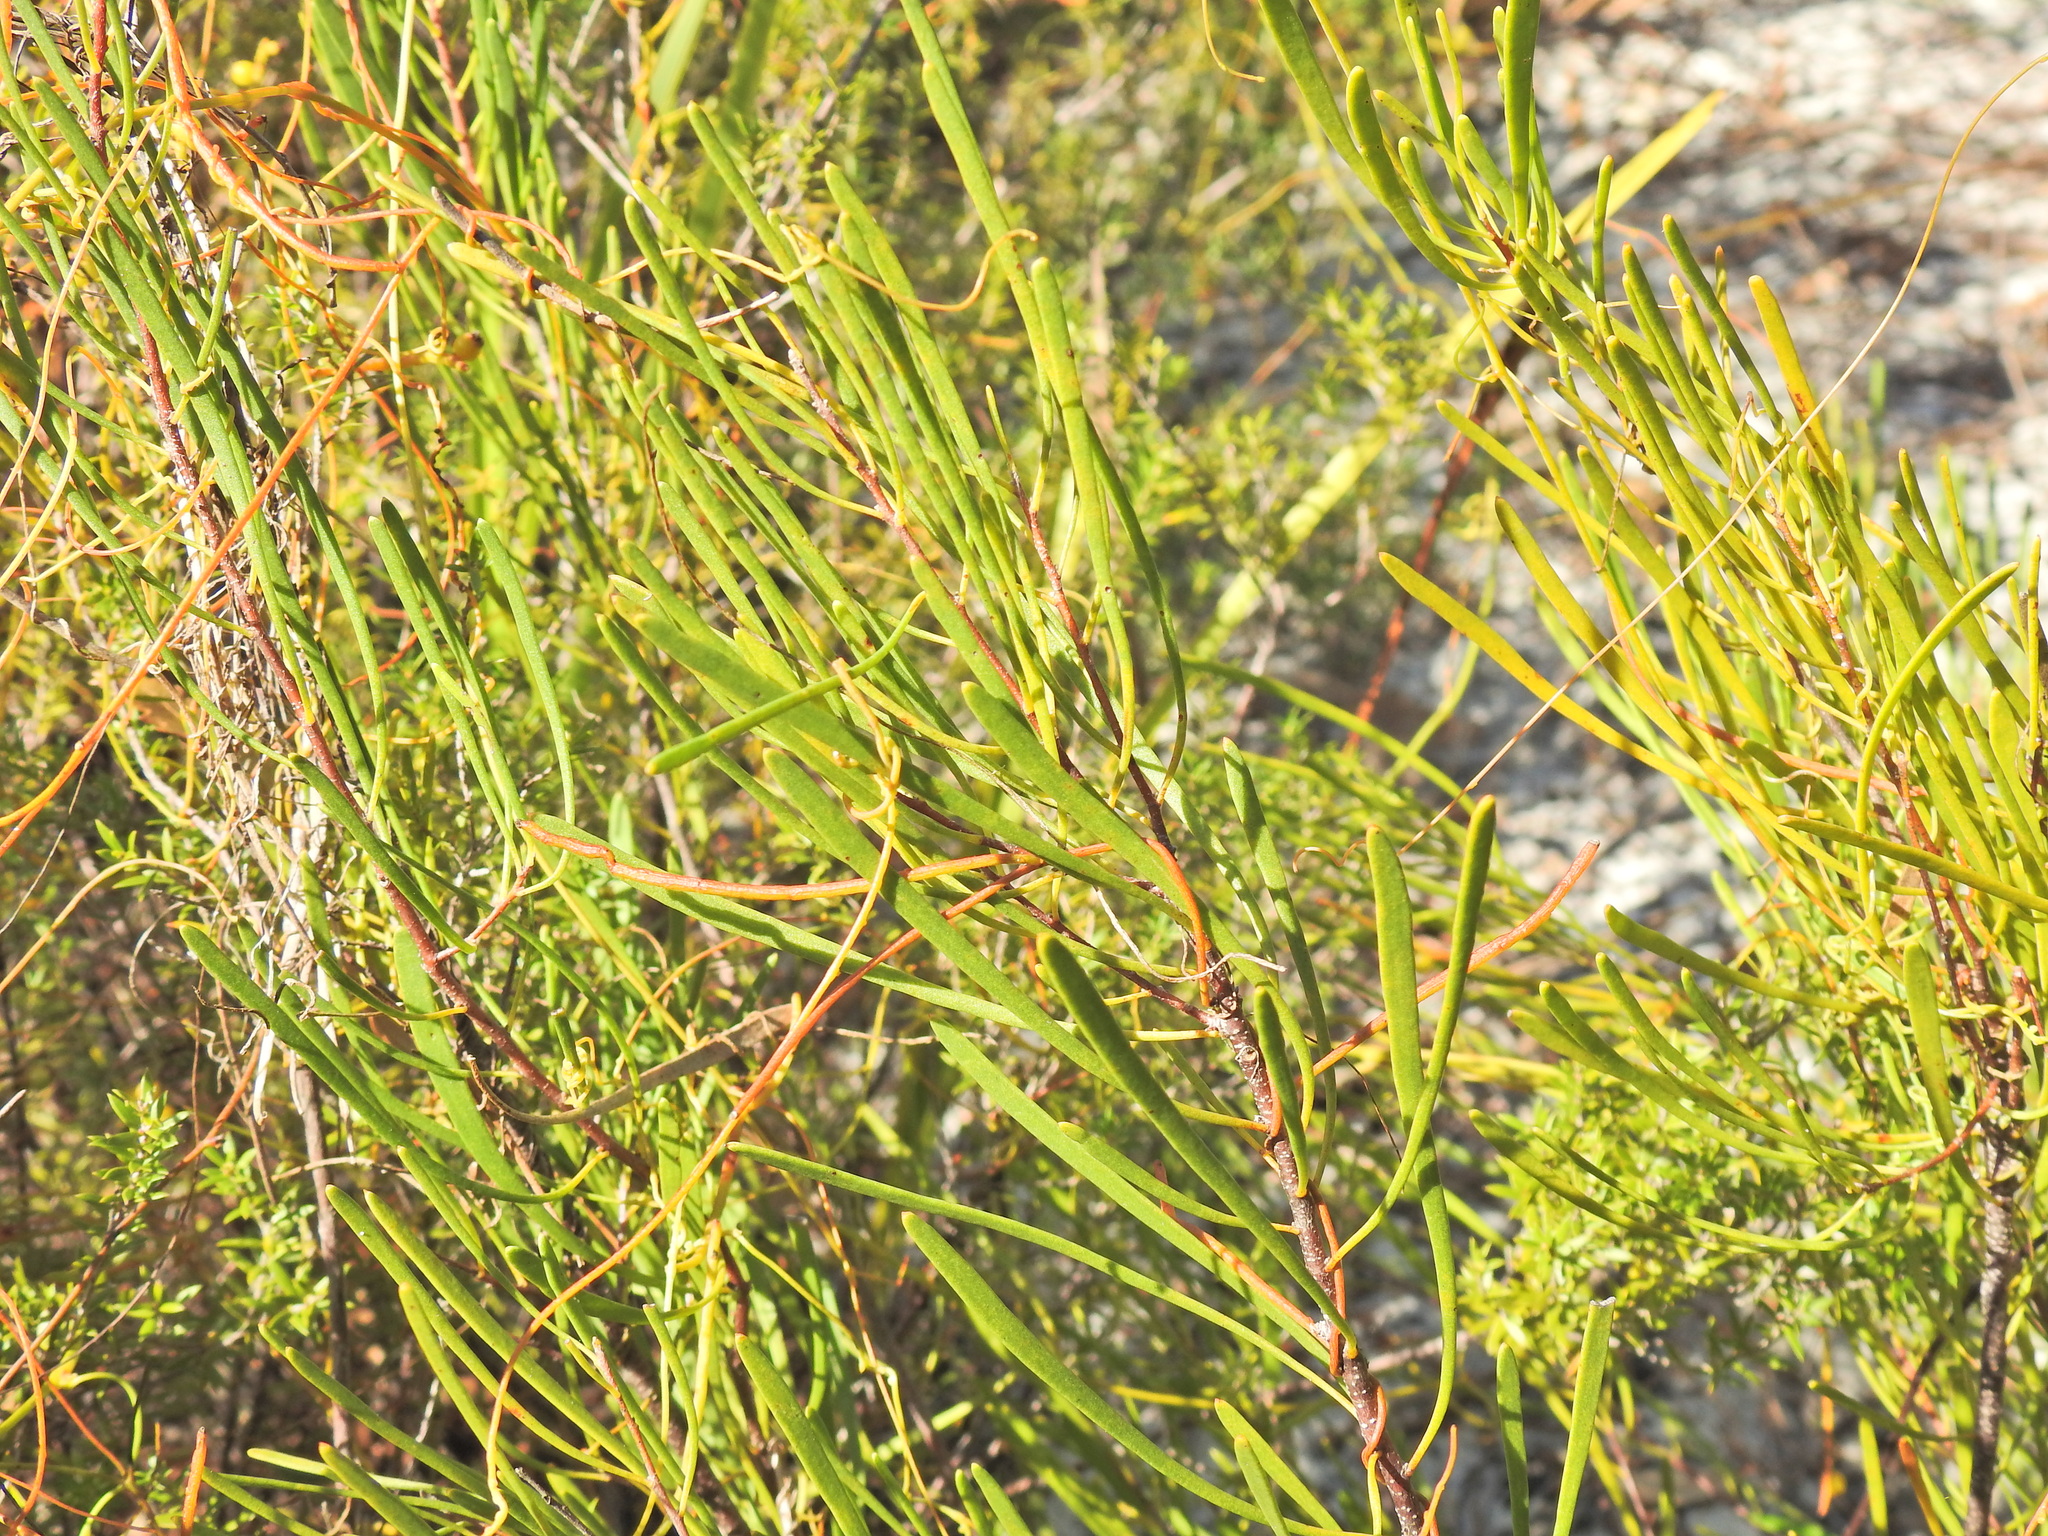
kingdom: Plantae
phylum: Tracheophyta
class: Magnoliopsida
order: Proteales
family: Proteaceae
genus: Strangea
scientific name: Strangea linearis
